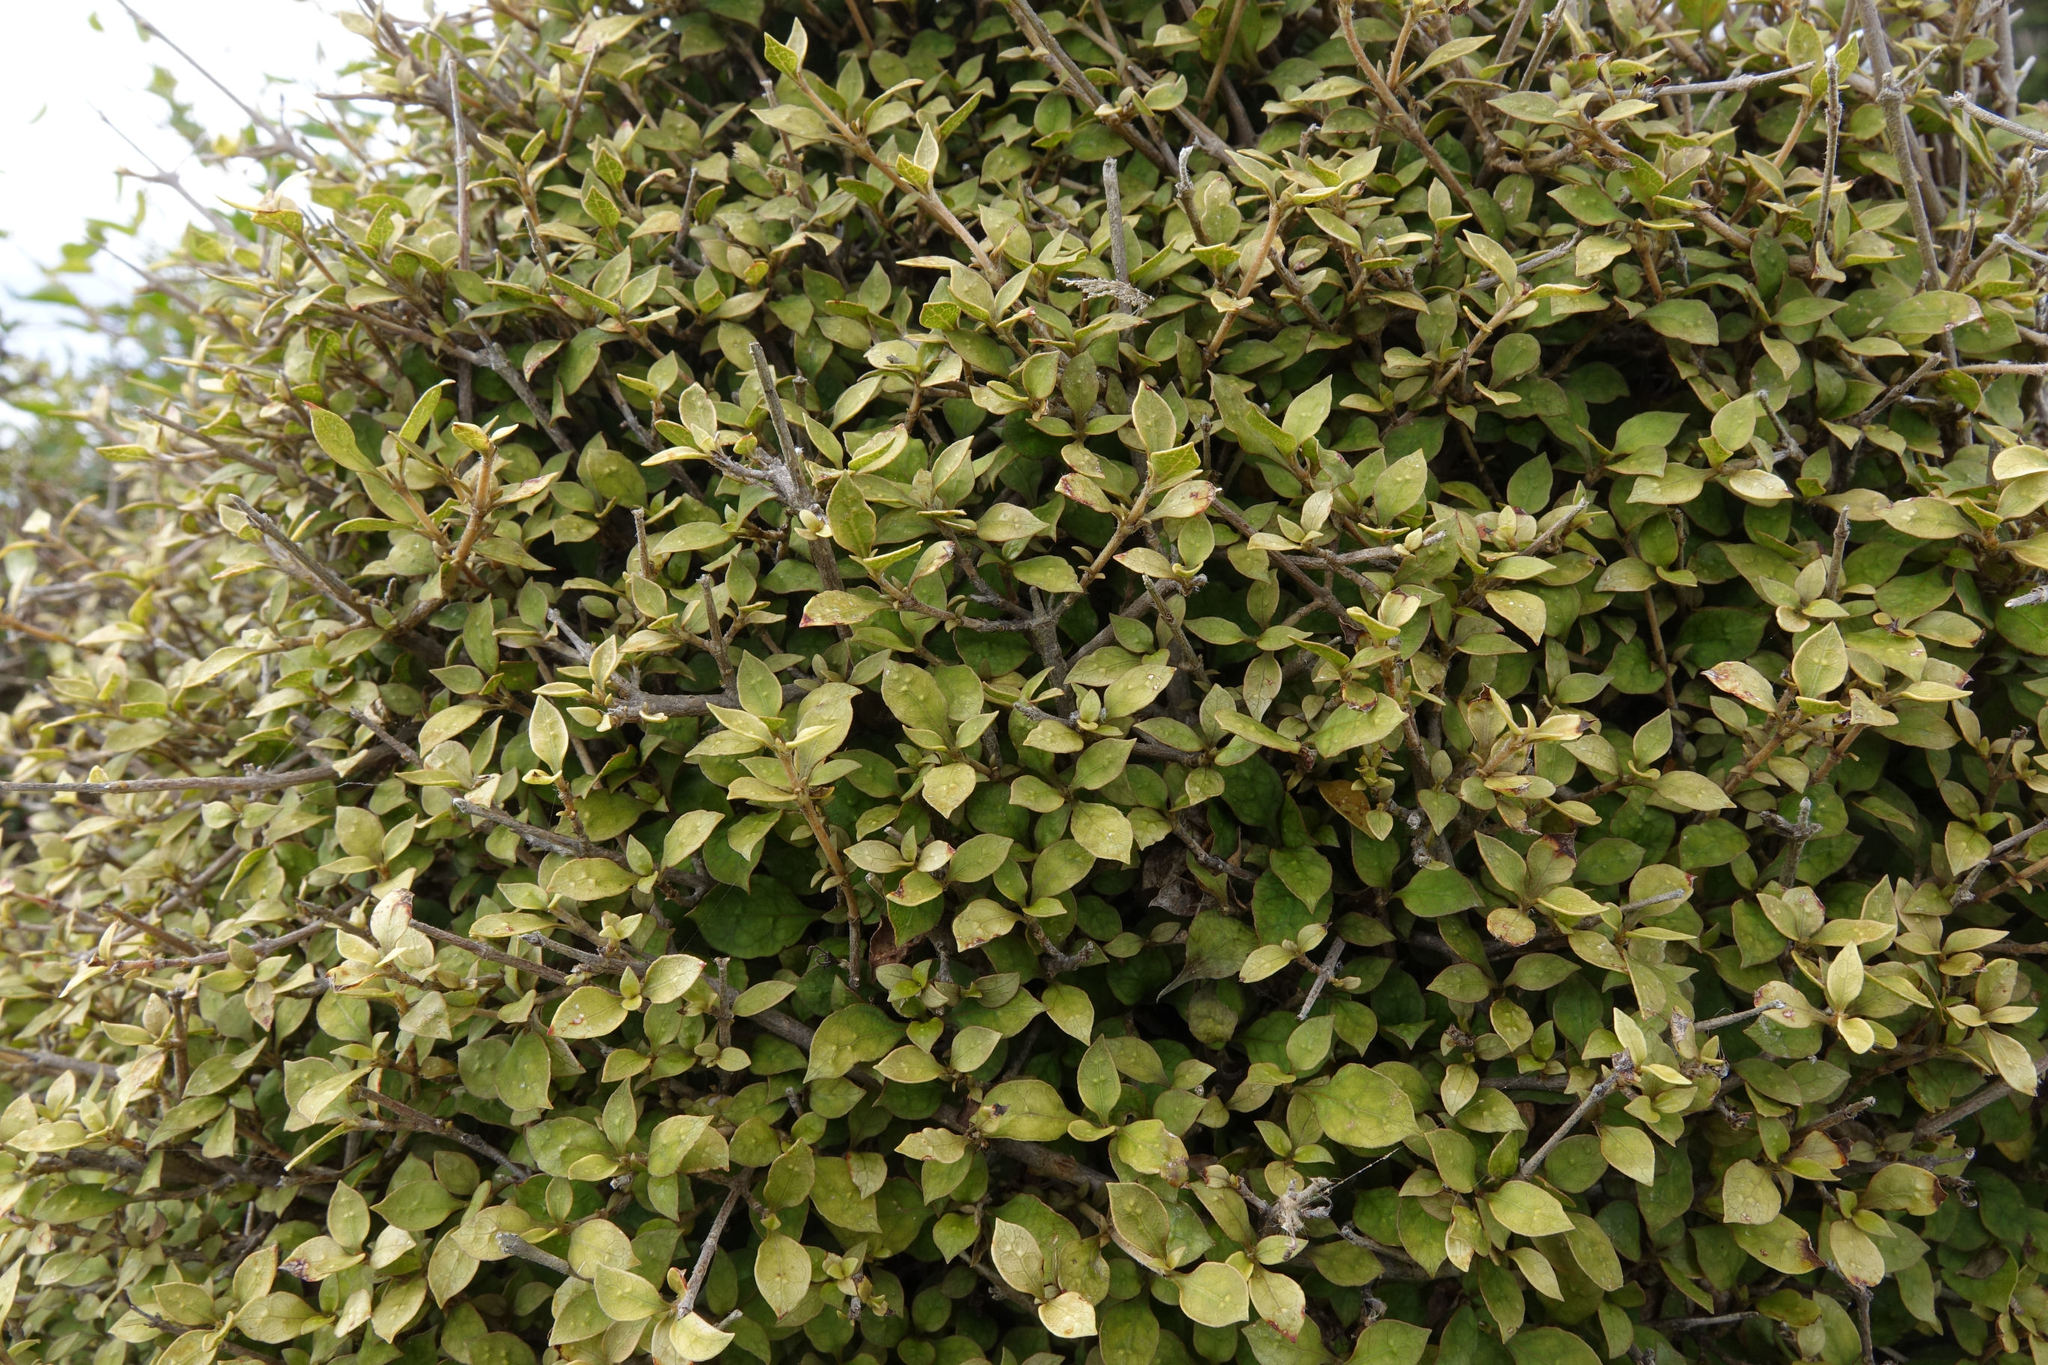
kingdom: Plantae
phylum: Tracheophyta
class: Magnoliopsida
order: Gentianales
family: Rubiaceae
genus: Coprosma
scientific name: Coprosma areolata
